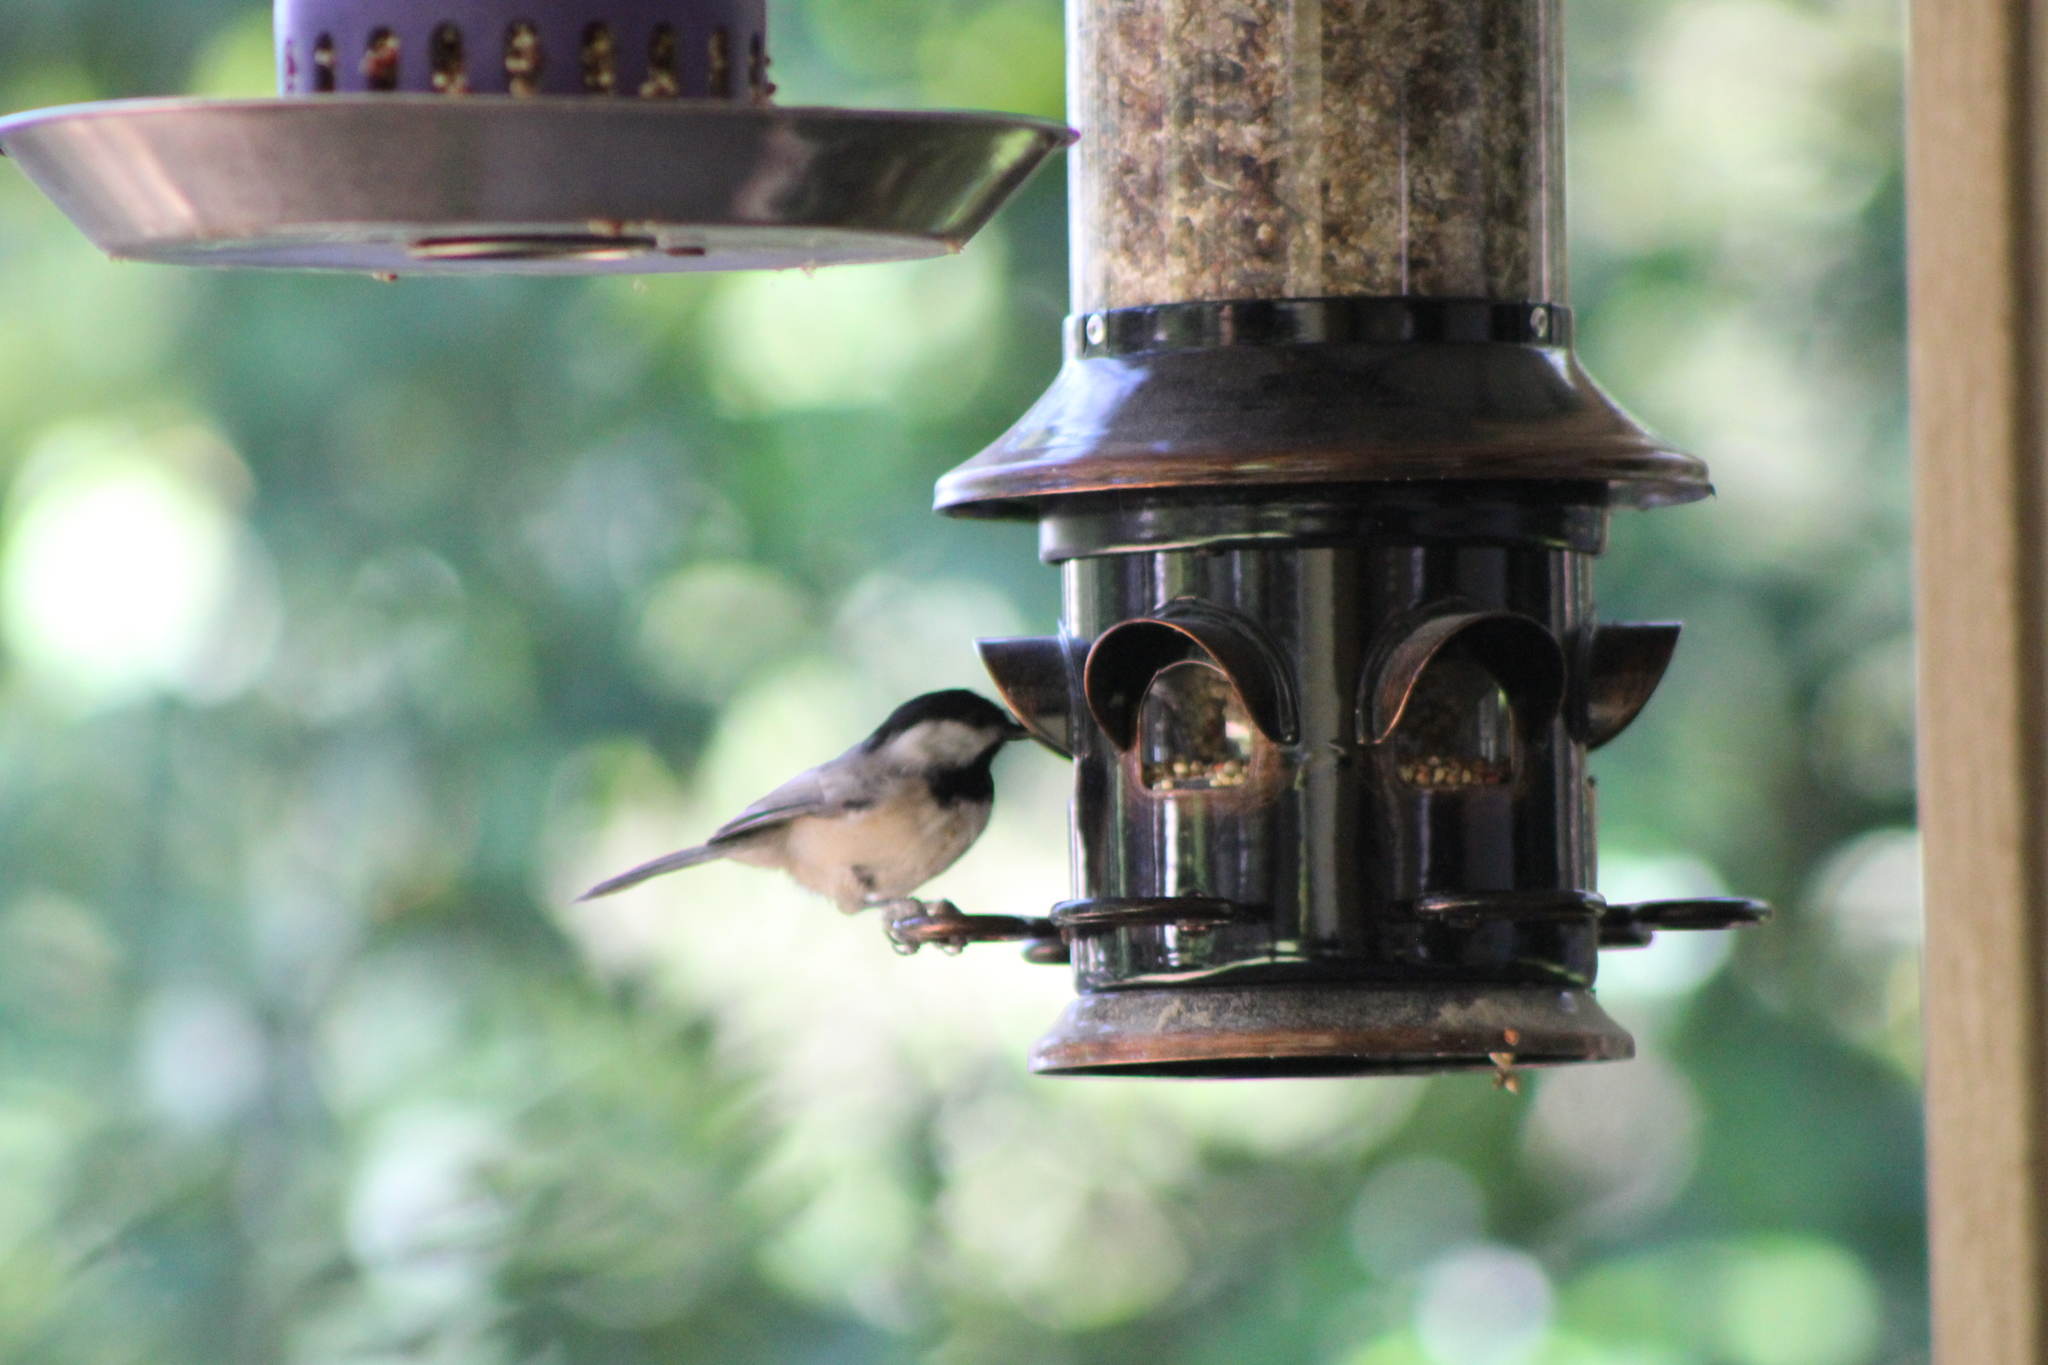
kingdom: Animalia
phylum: Chordata
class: Aves
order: Passeriformes
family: Paridae
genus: Poecile
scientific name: Poecile carolinensis
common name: Carolina chickadee
